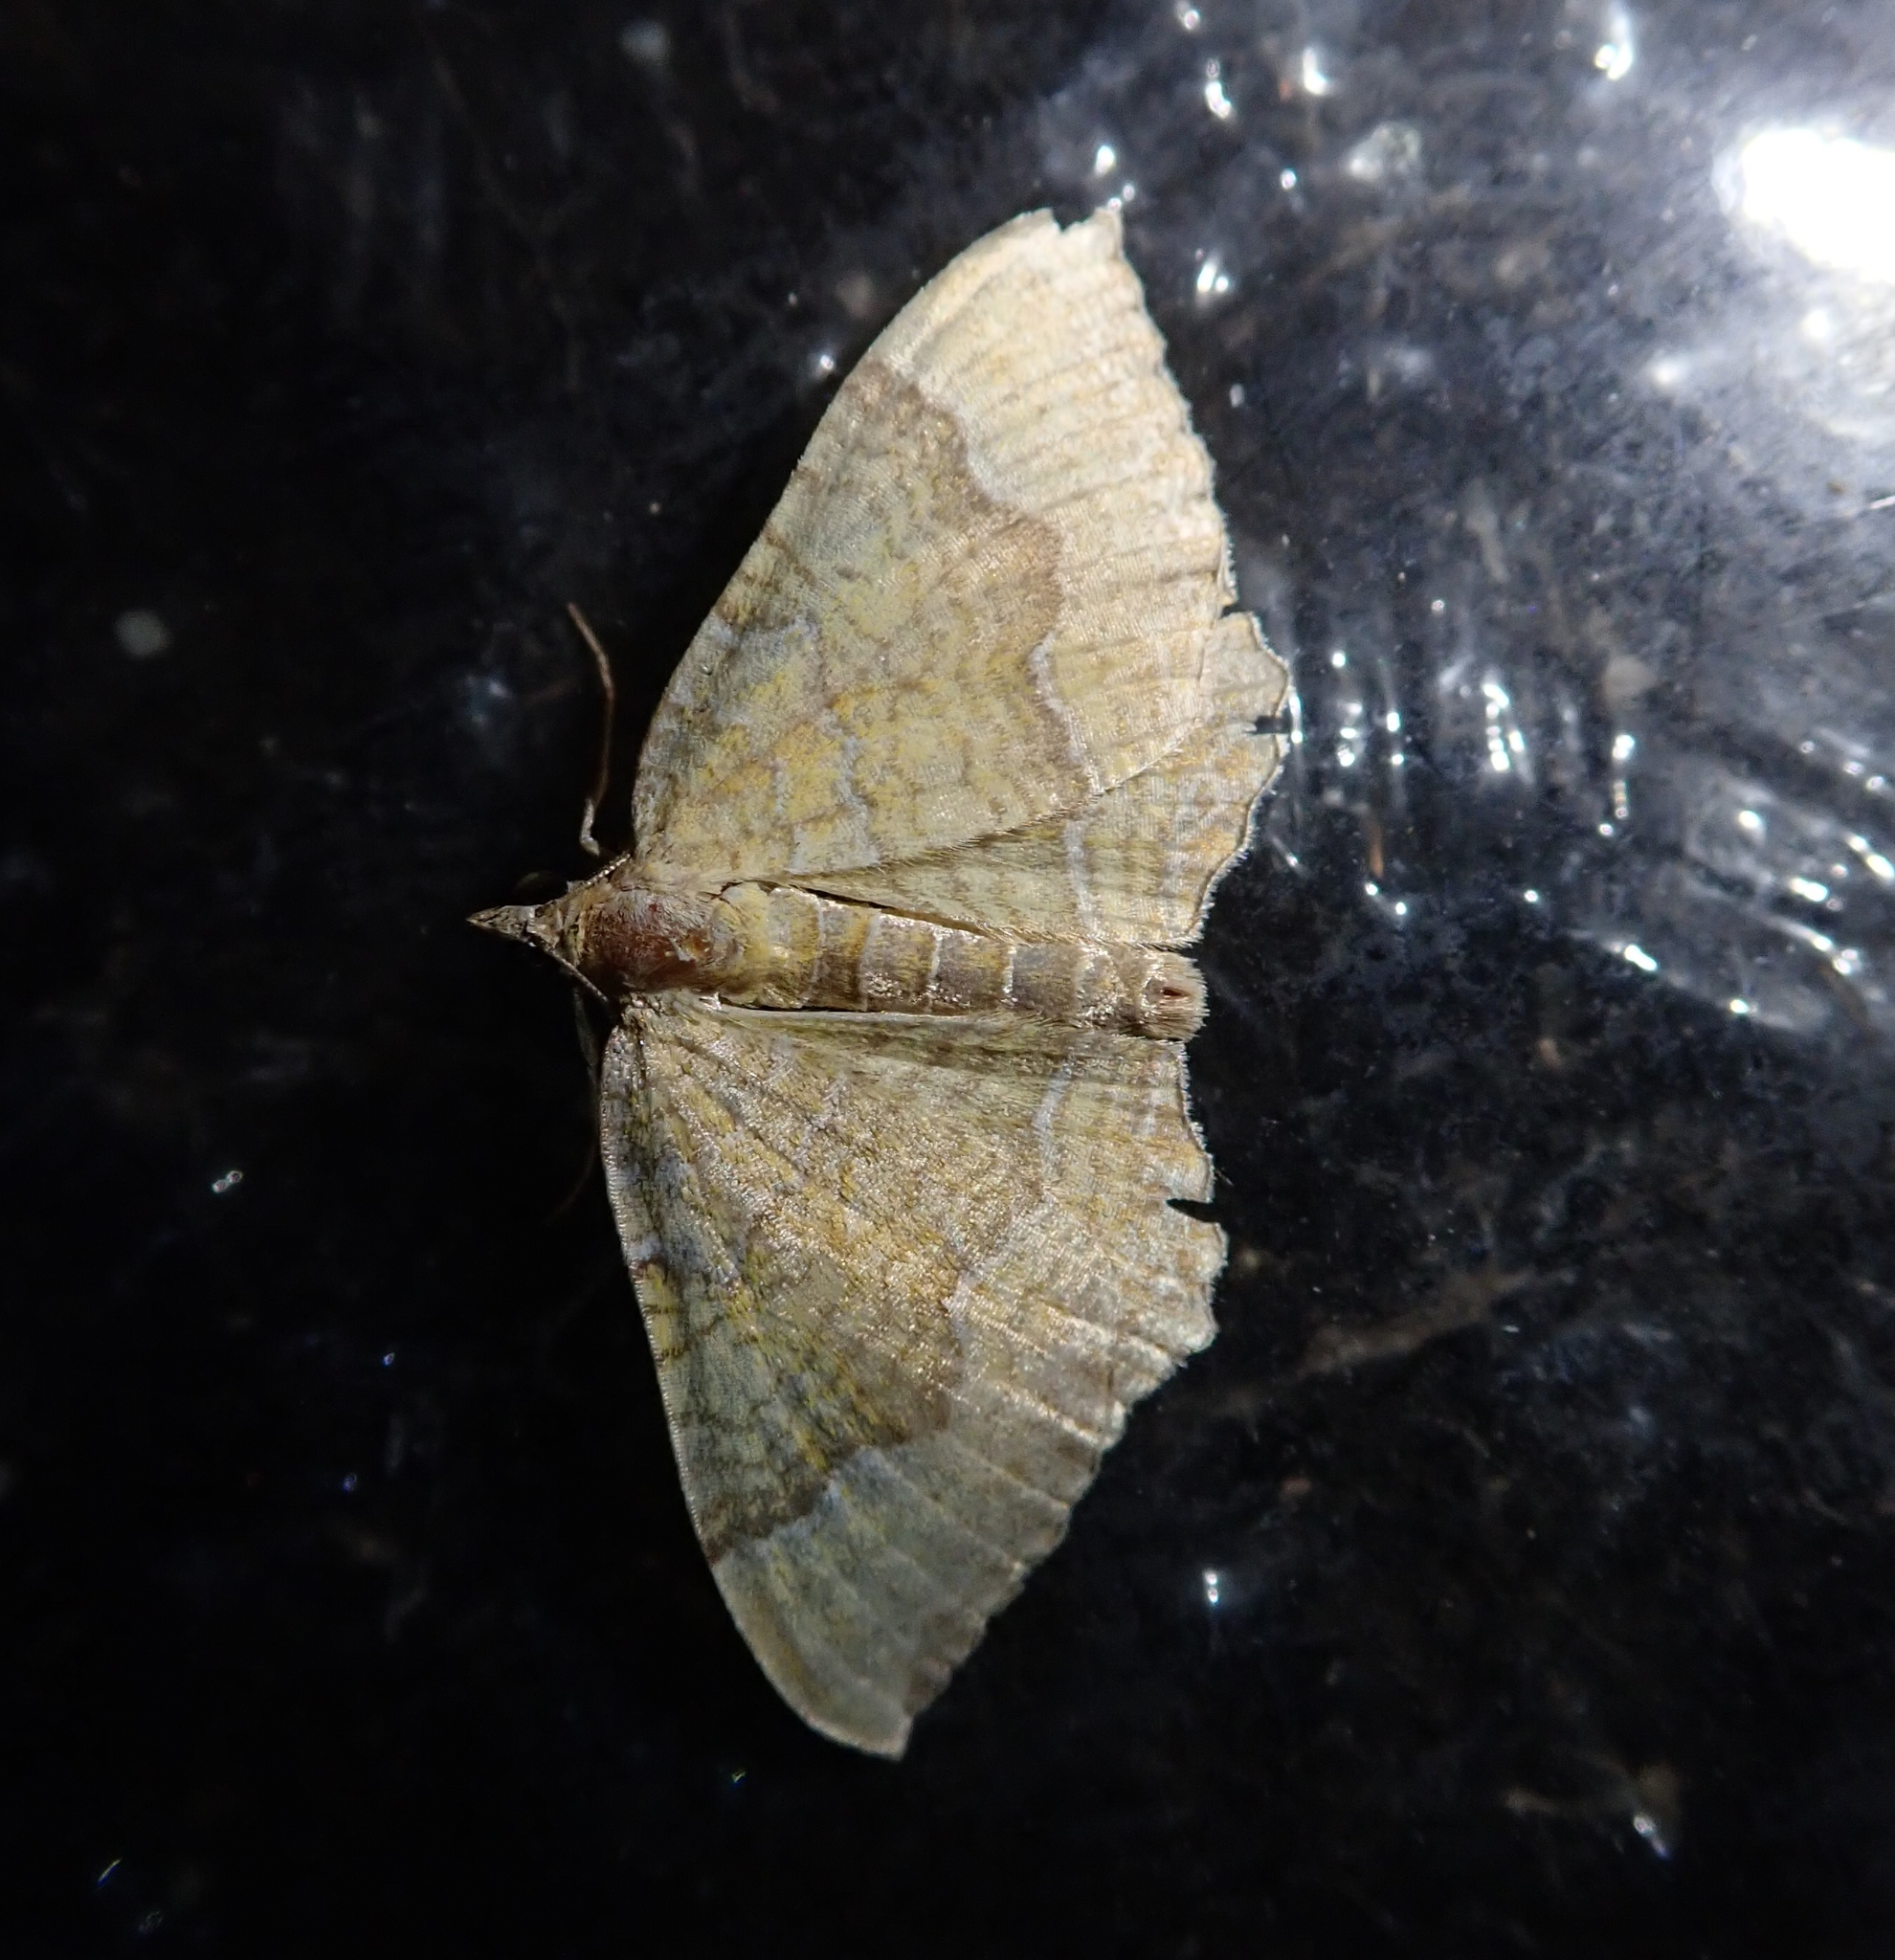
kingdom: Animalia
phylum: Arthropoda
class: Insecta
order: Lepidoptera
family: Geometridae
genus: Camptogramma
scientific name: Camptogramma bilineata
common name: Yellow shell
